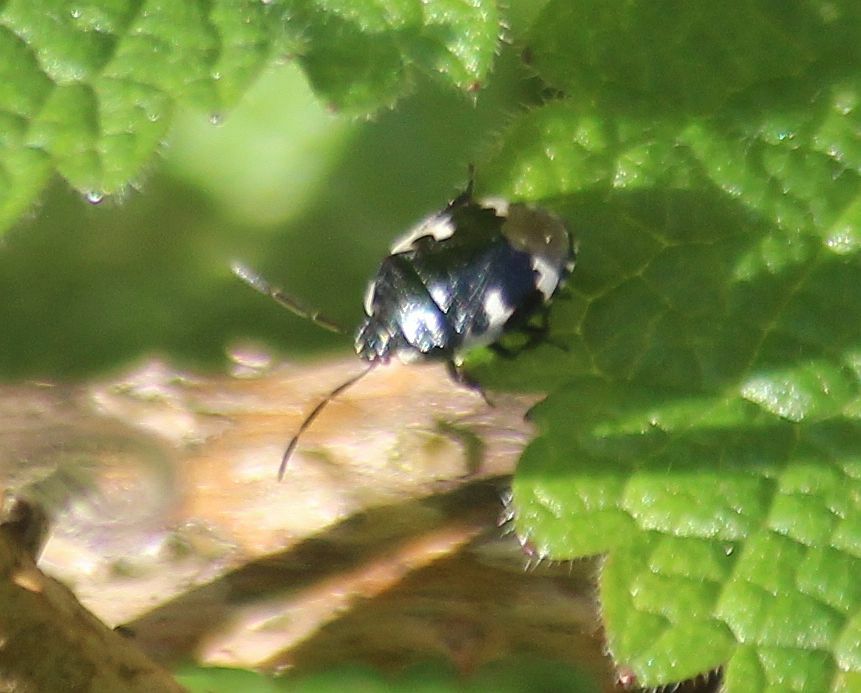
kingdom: Animalia
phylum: Arthropoda
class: Insecta
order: Hemiptera
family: Cydnidae
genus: Tritomegas
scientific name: Tritomegas bicolor
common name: Pied shieldbug
